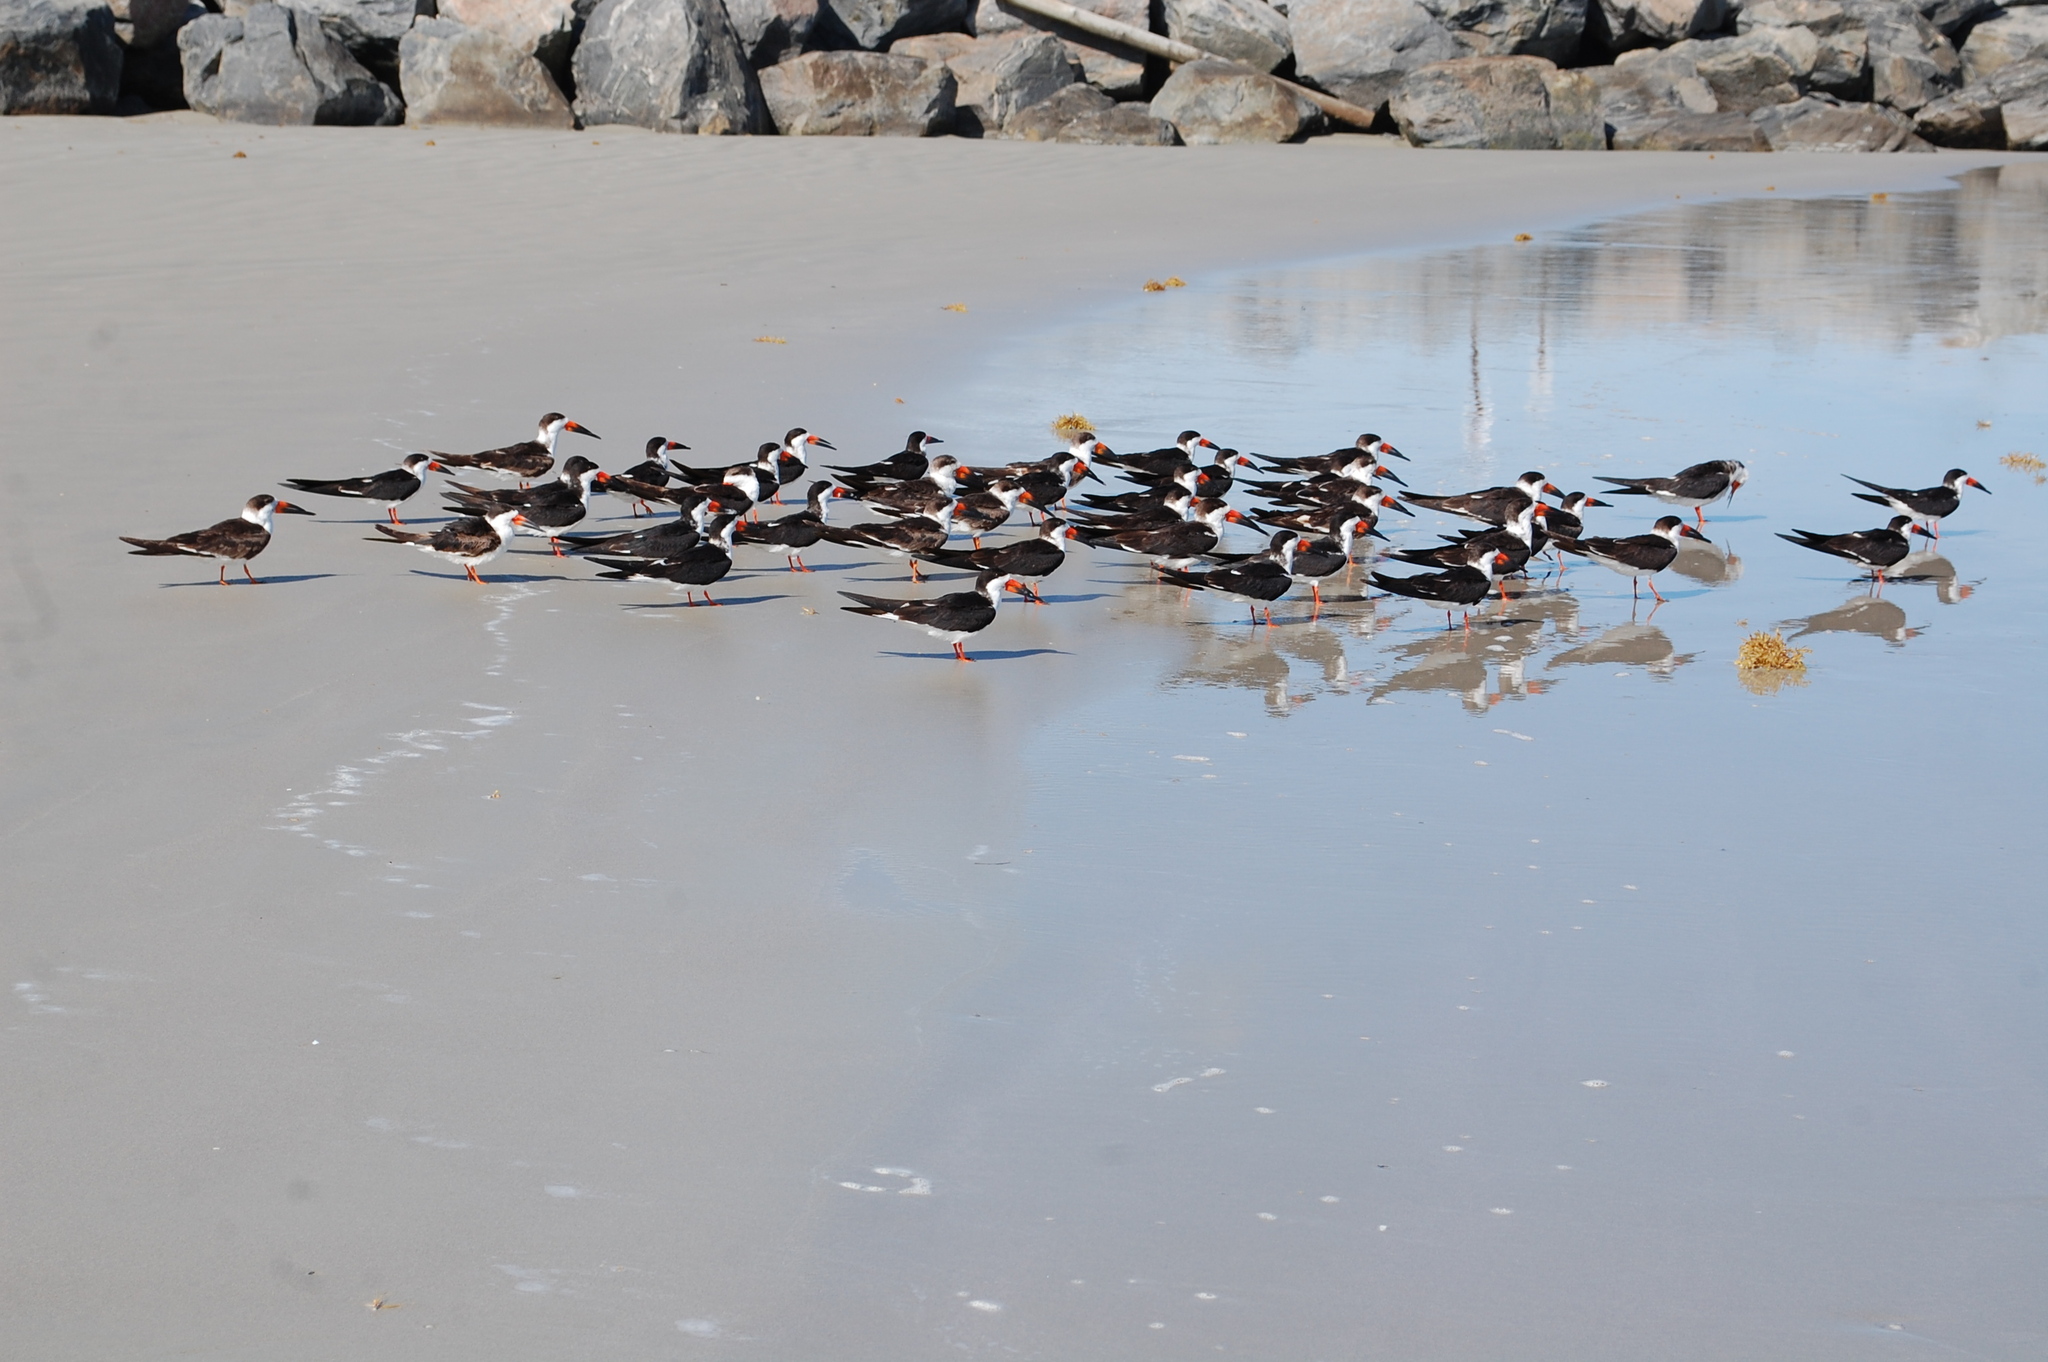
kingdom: Animalia
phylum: Chordata
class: Aves
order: Charadriiformes
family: Laridae
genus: Rynchops
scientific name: Rynchops niger
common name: Black skimmer
